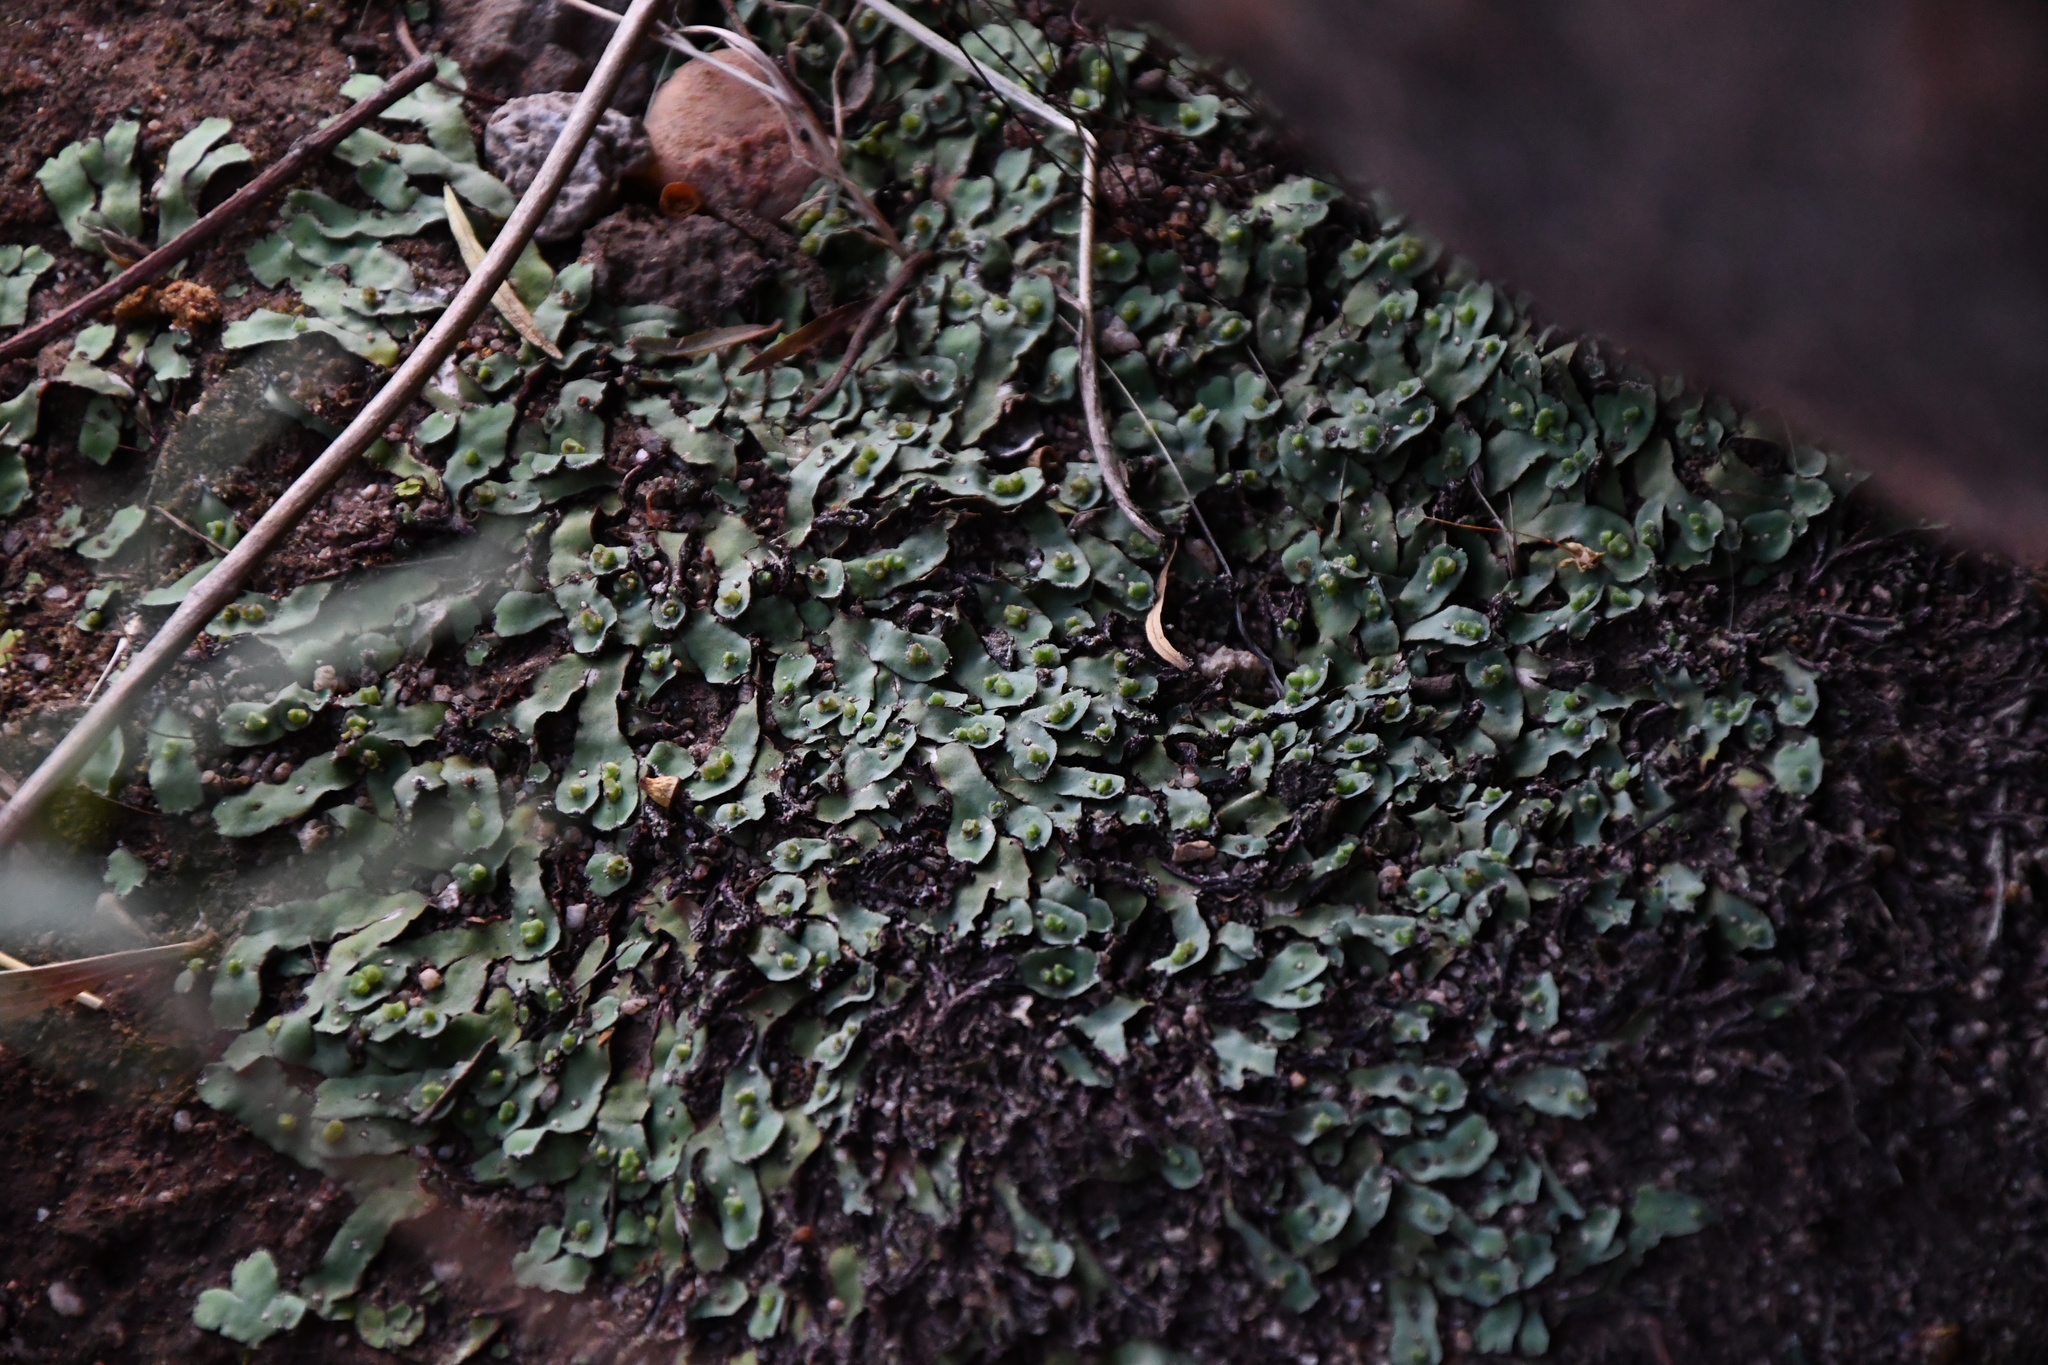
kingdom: Plantae
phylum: Marchantiophyta
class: Marchantiopsida
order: Marchantiales
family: Aytoniaceae
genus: Plagiochasma
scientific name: Plagiochasma rupestre
